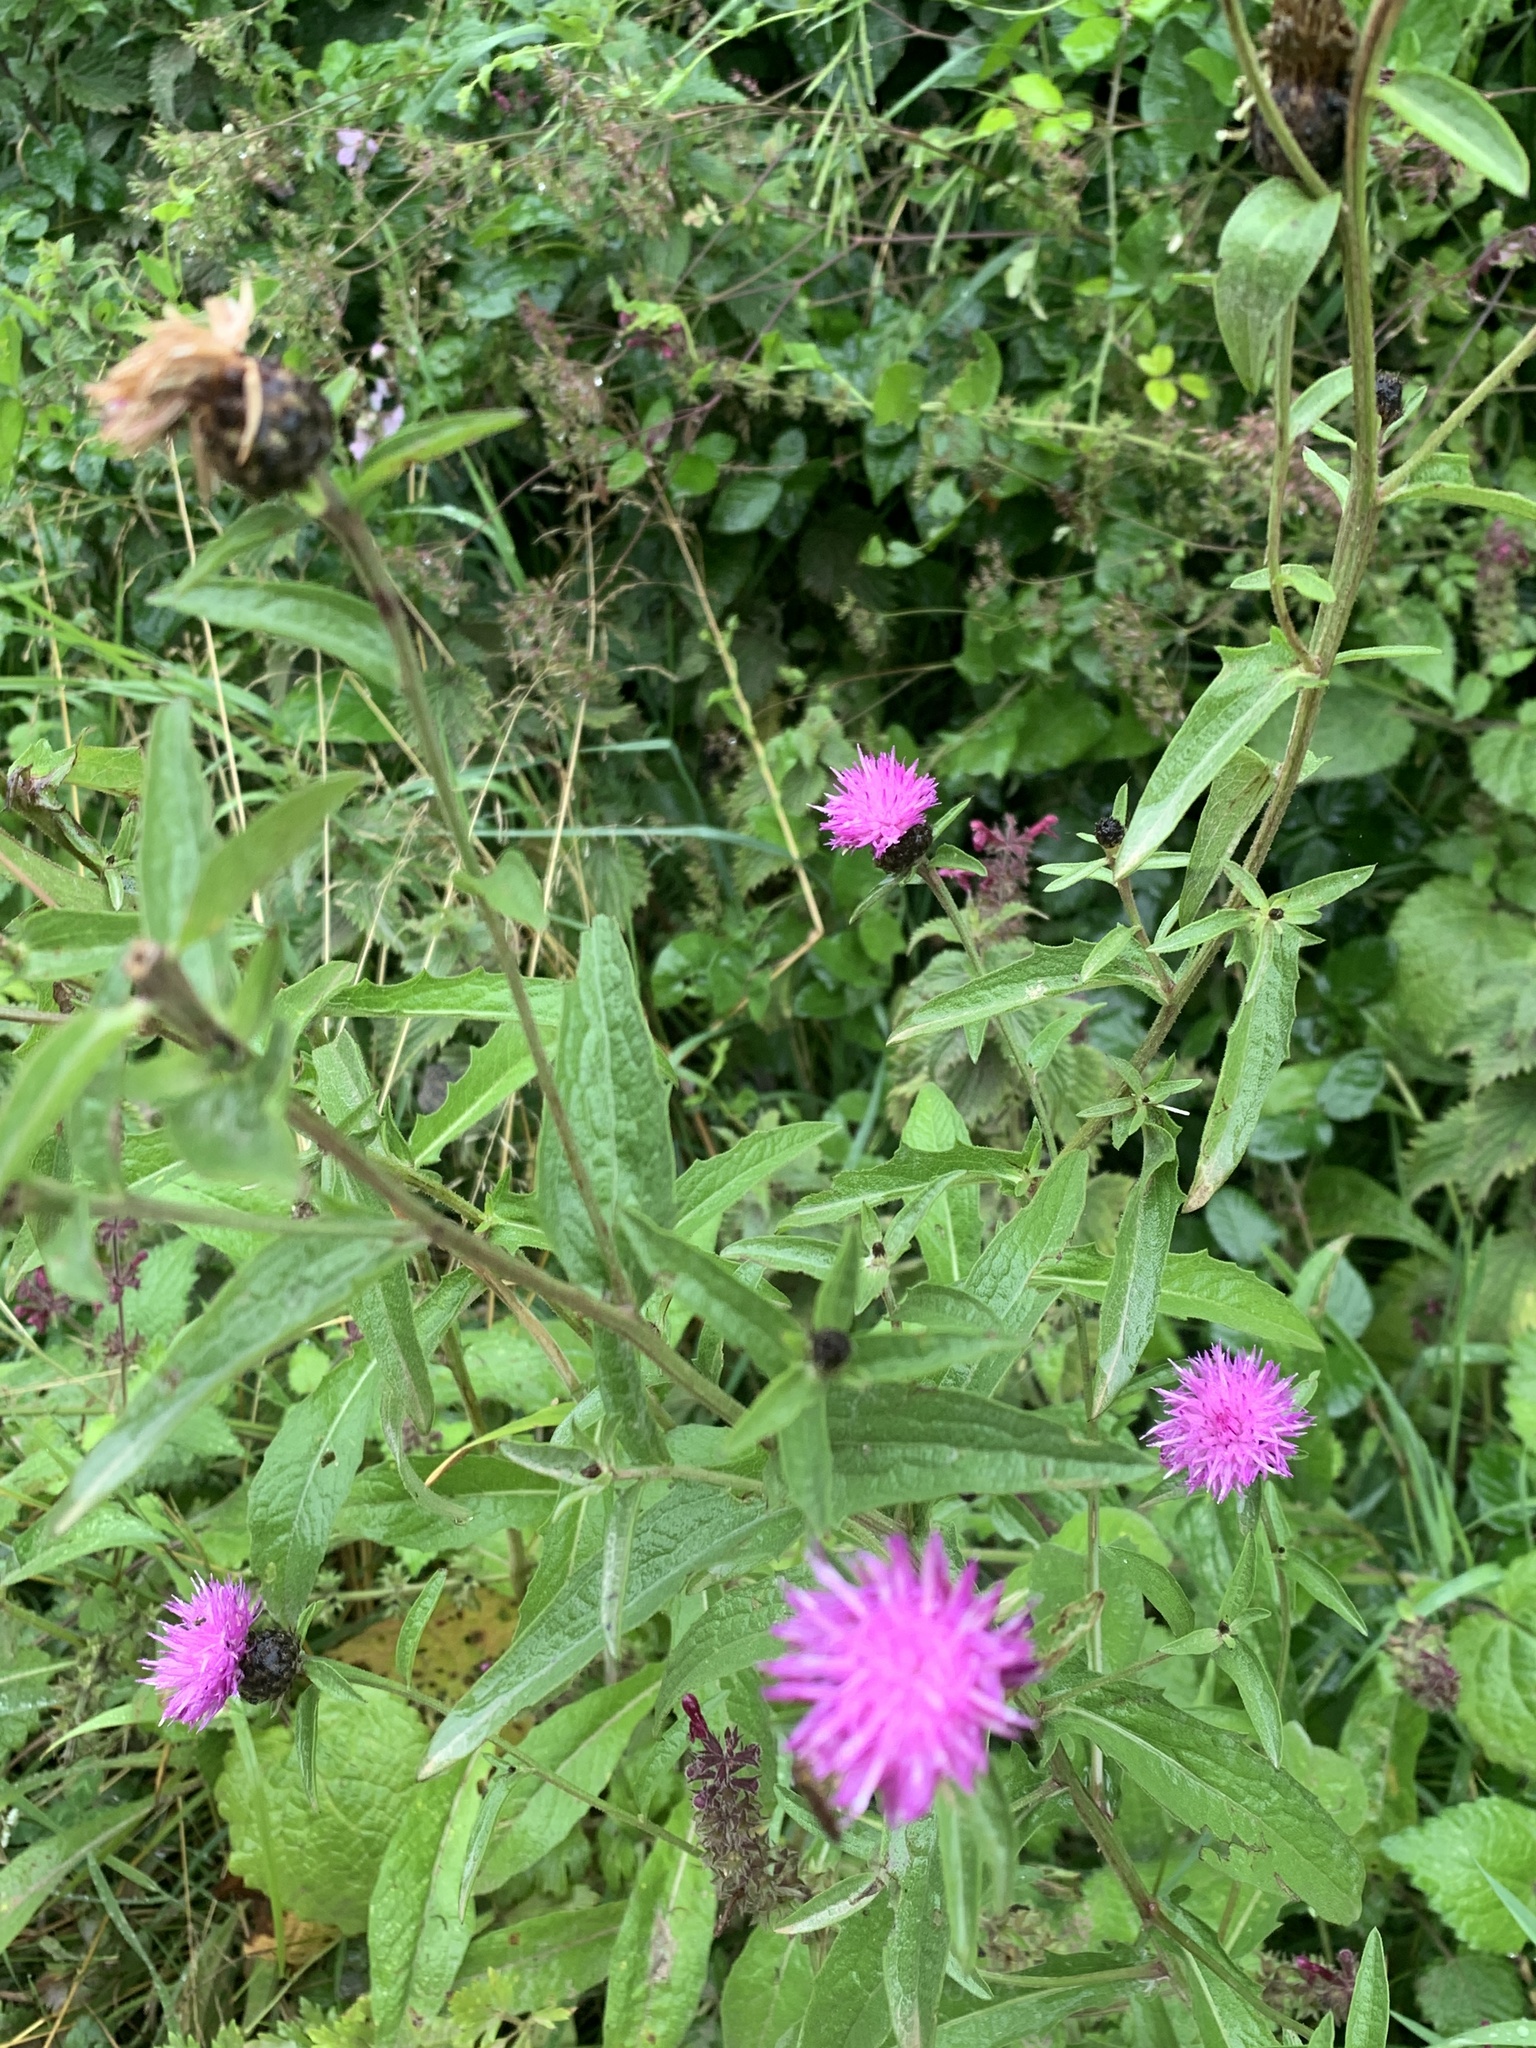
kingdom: Plantae
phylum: Tracheophyta
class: Magnoliopsida
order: Asterales
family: Asteraceae
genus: Centaurea
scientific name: Centaurea nigra
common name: Lesser knapweed
